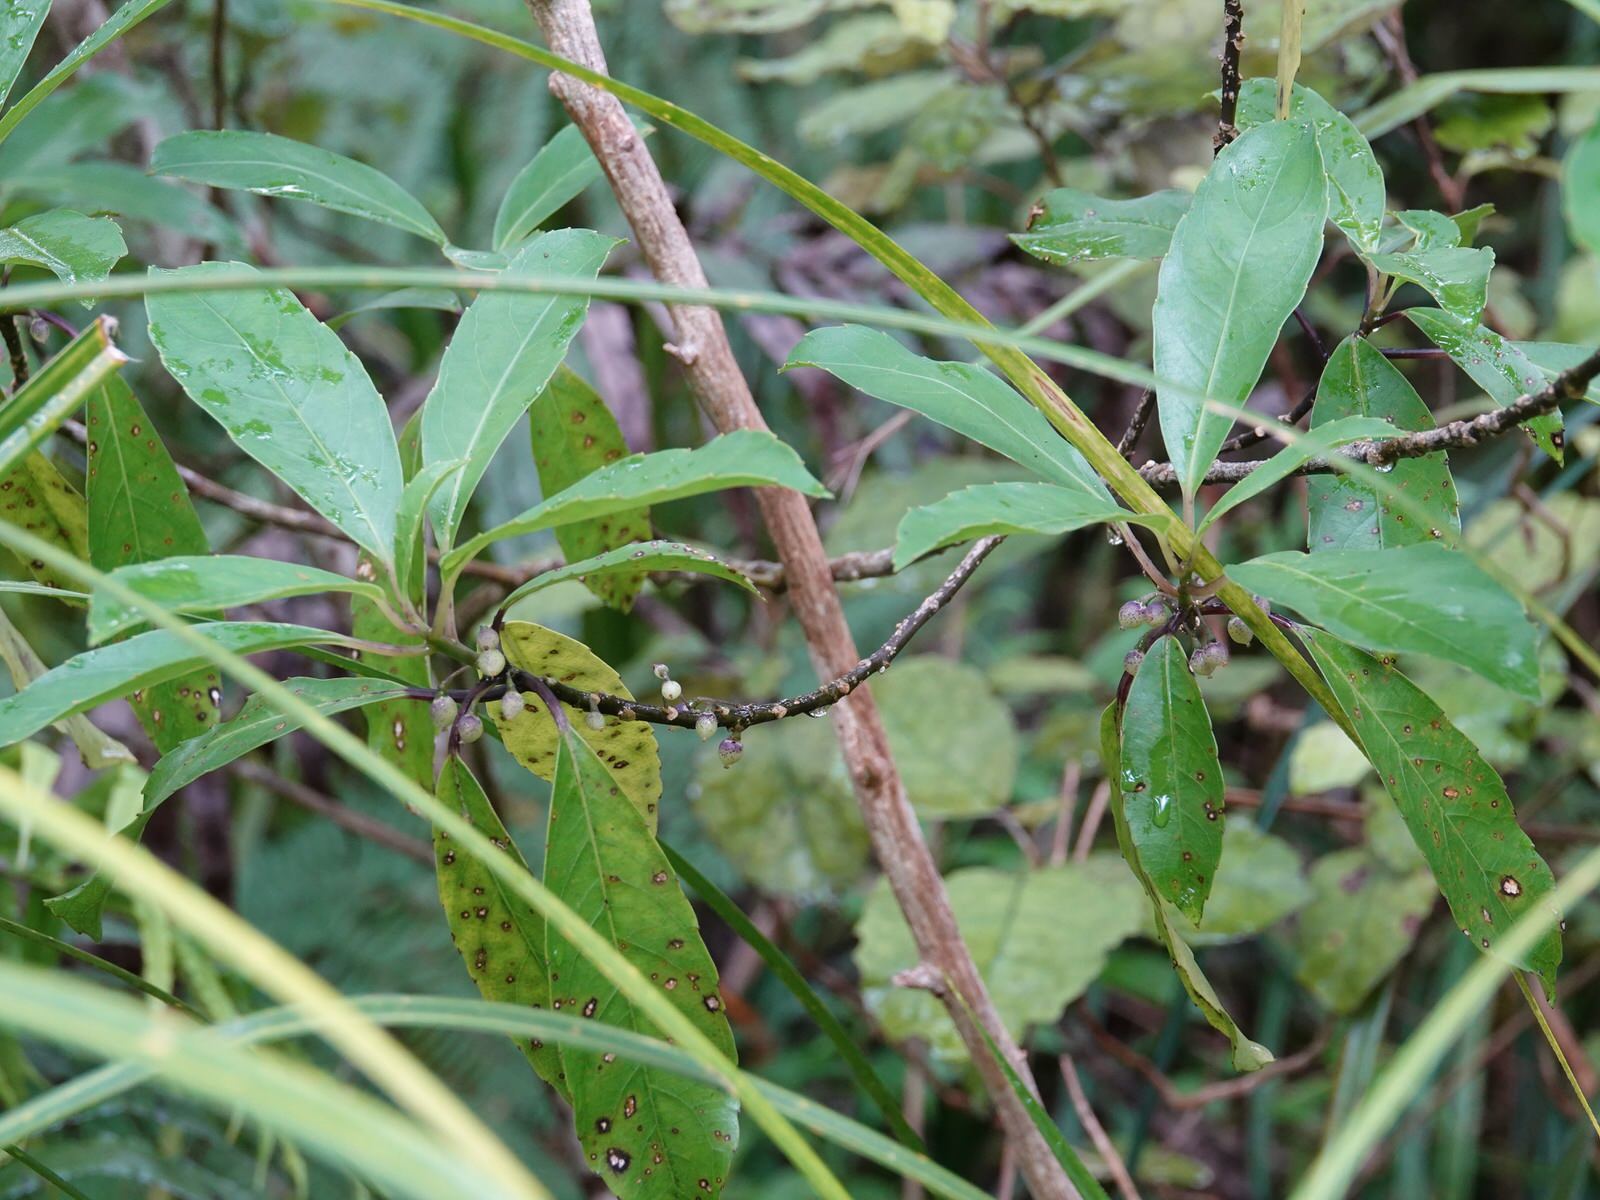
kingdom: Plantae
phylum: Tracheophyta
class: Magnoliopsida
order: Malpighiales
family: Violaceae
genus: Melicytus
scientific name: Melicytus macrophyllus
